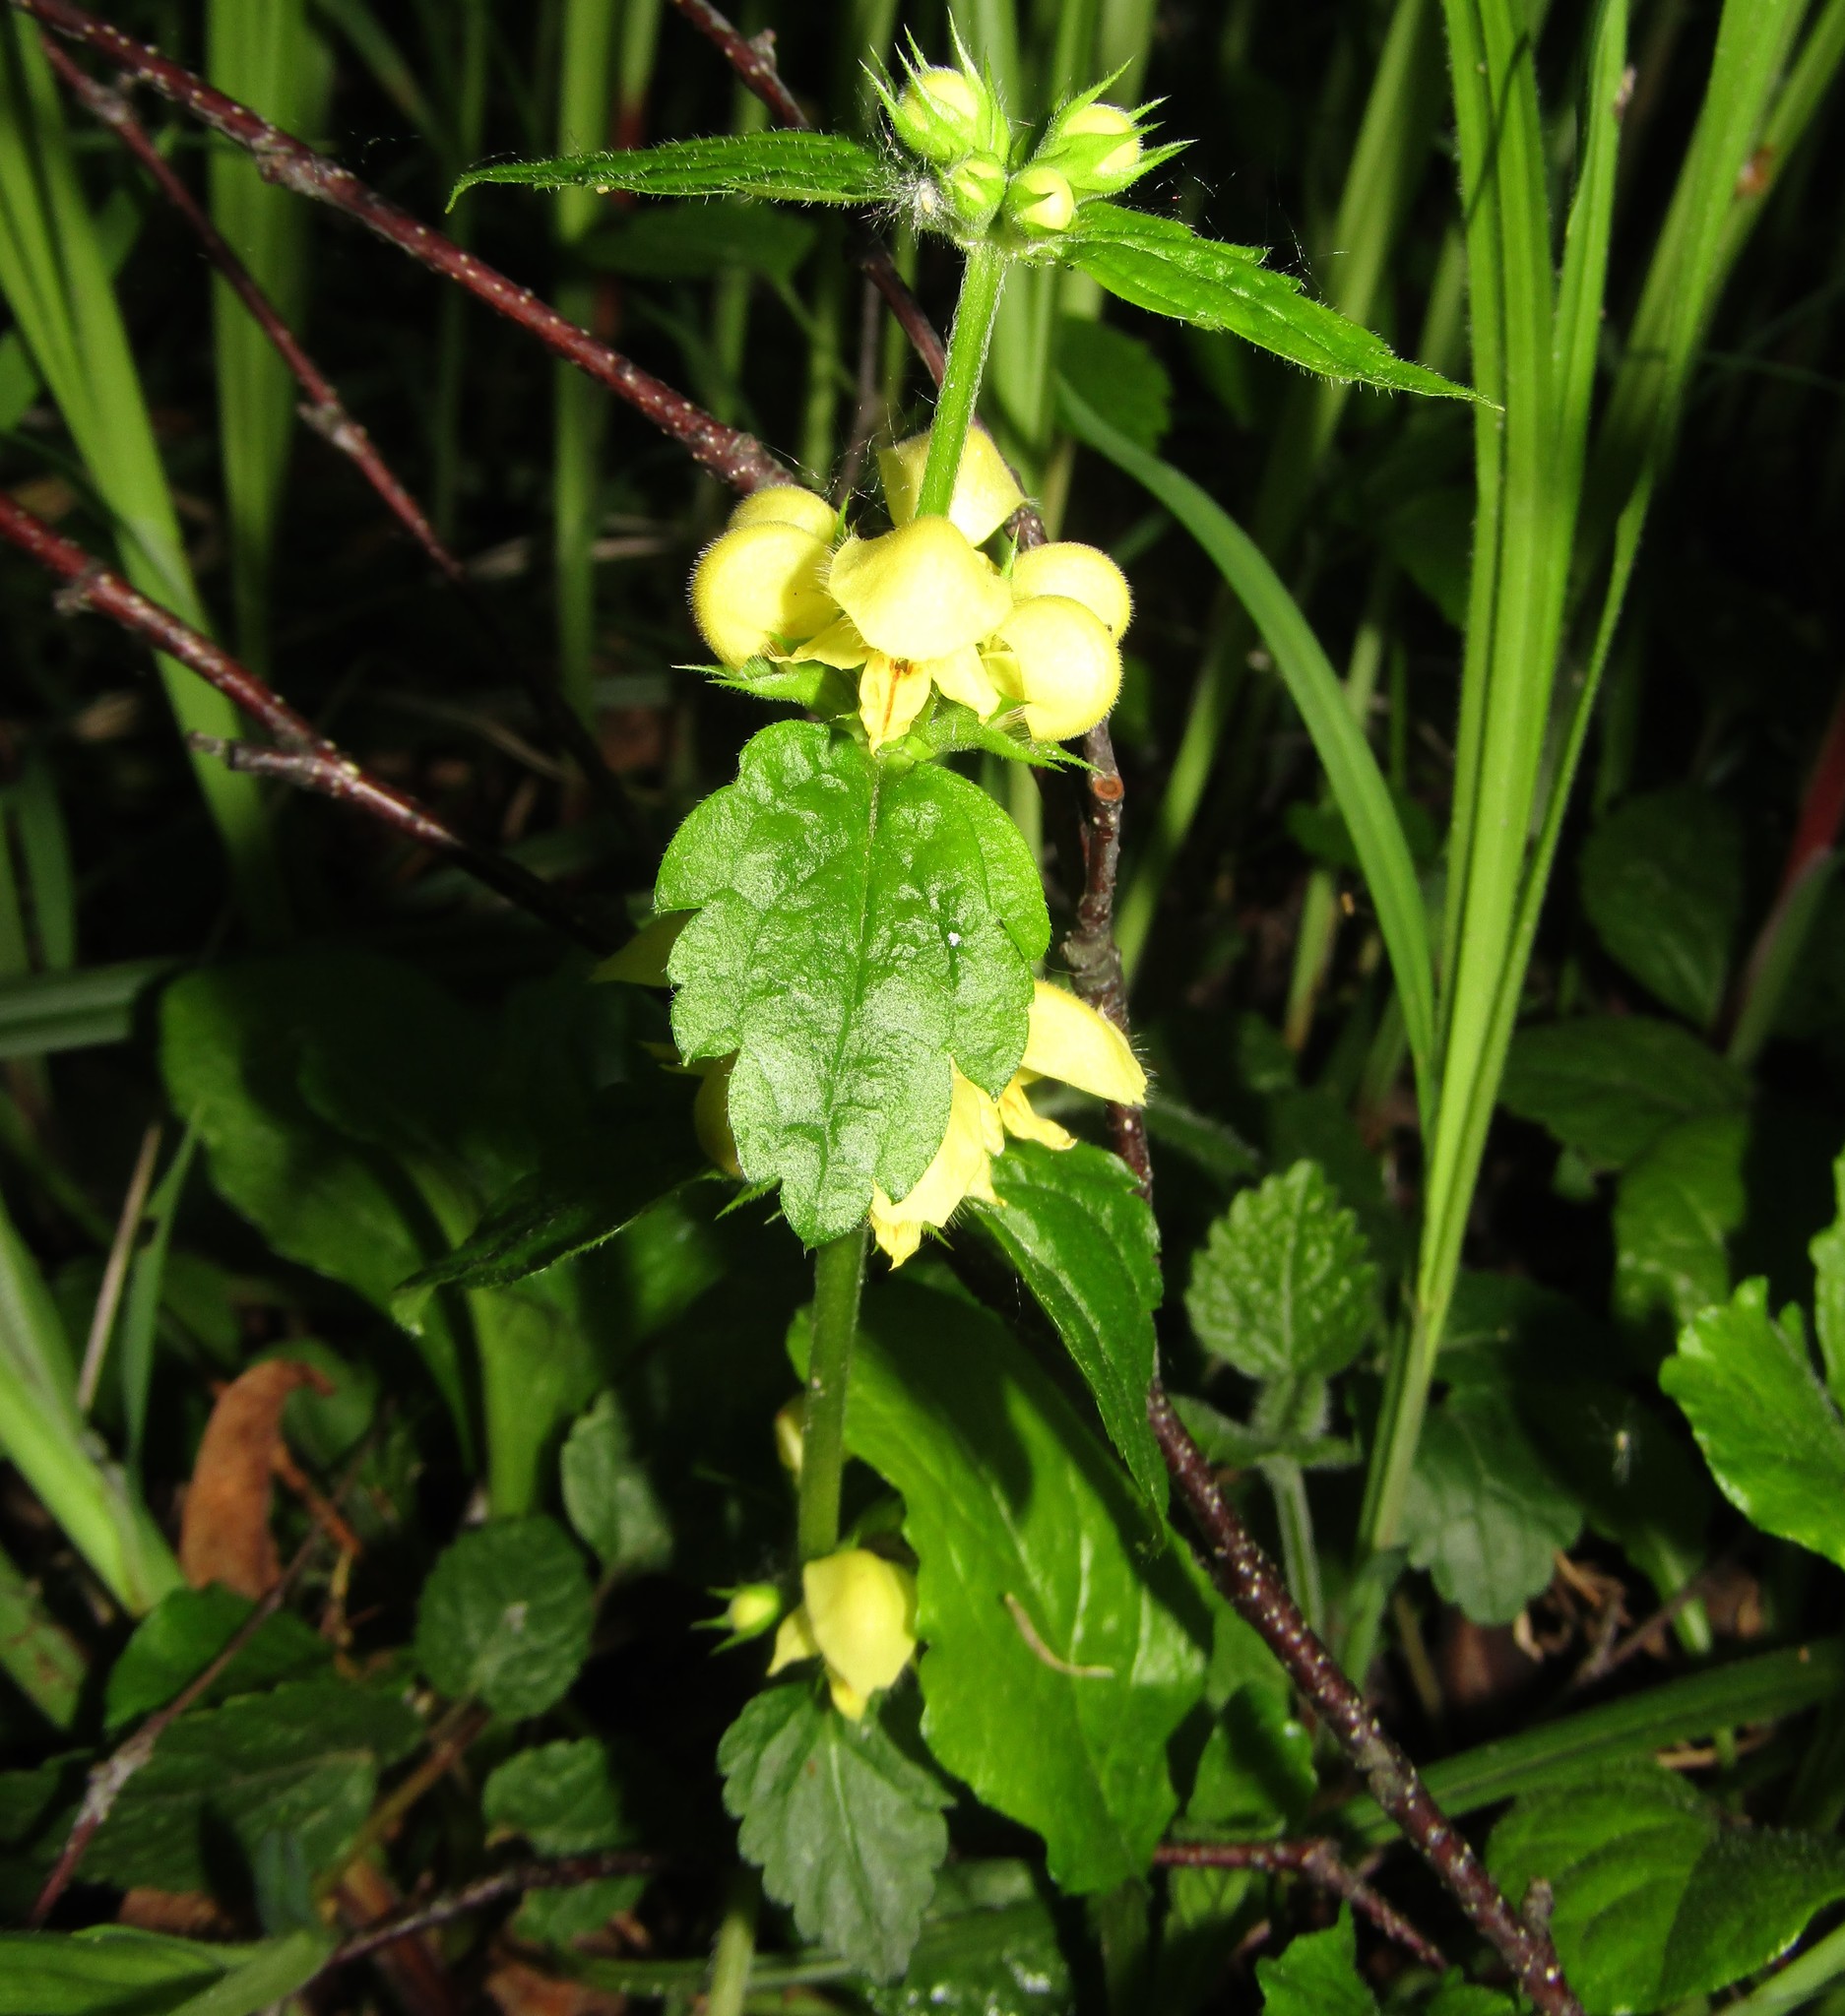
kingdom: Plantae
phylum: Tracheophyta
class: Magnoliopsida
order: Lamiales
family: Lamiaceae
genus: Lamium
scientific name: Lamium galeobdolon
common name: Yellow archangel
